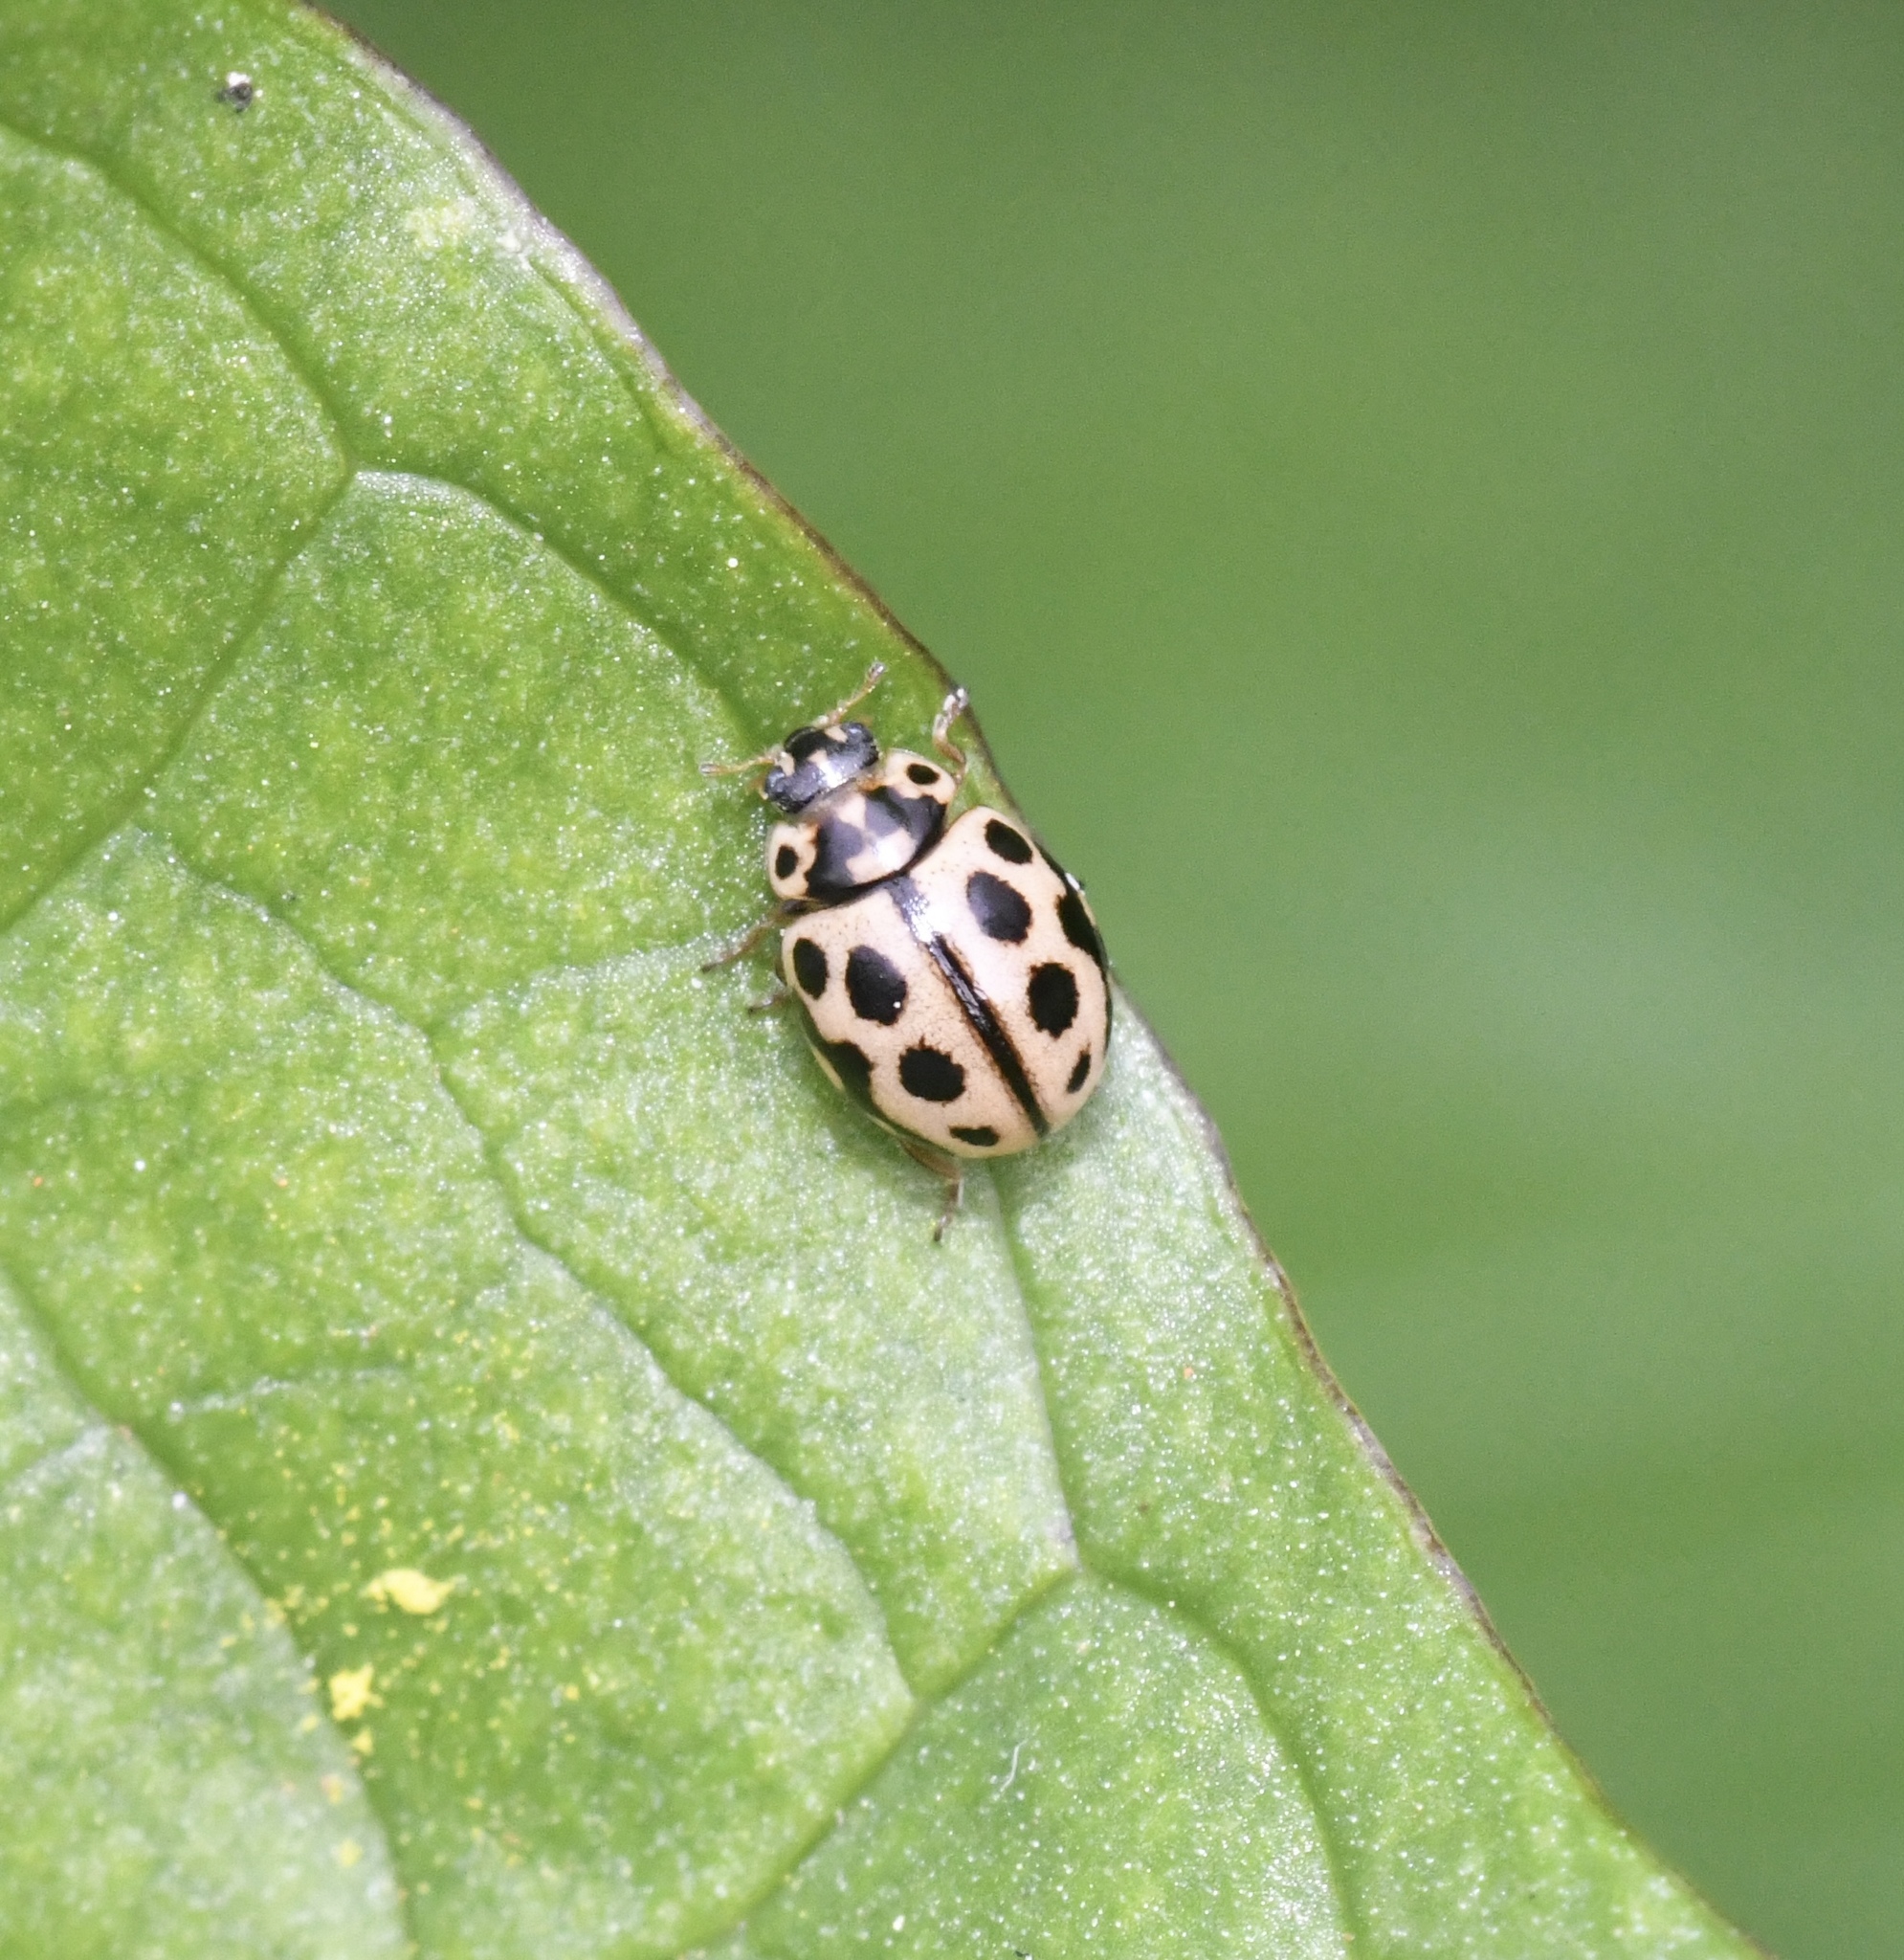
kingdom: Animalia
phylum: Arthropoda
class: Insecta
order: Coleoptera
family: Coccinellidae
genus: Tytthaspis
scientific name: Tytthaspis sedecimpunctata
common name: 16-spot ladybird
